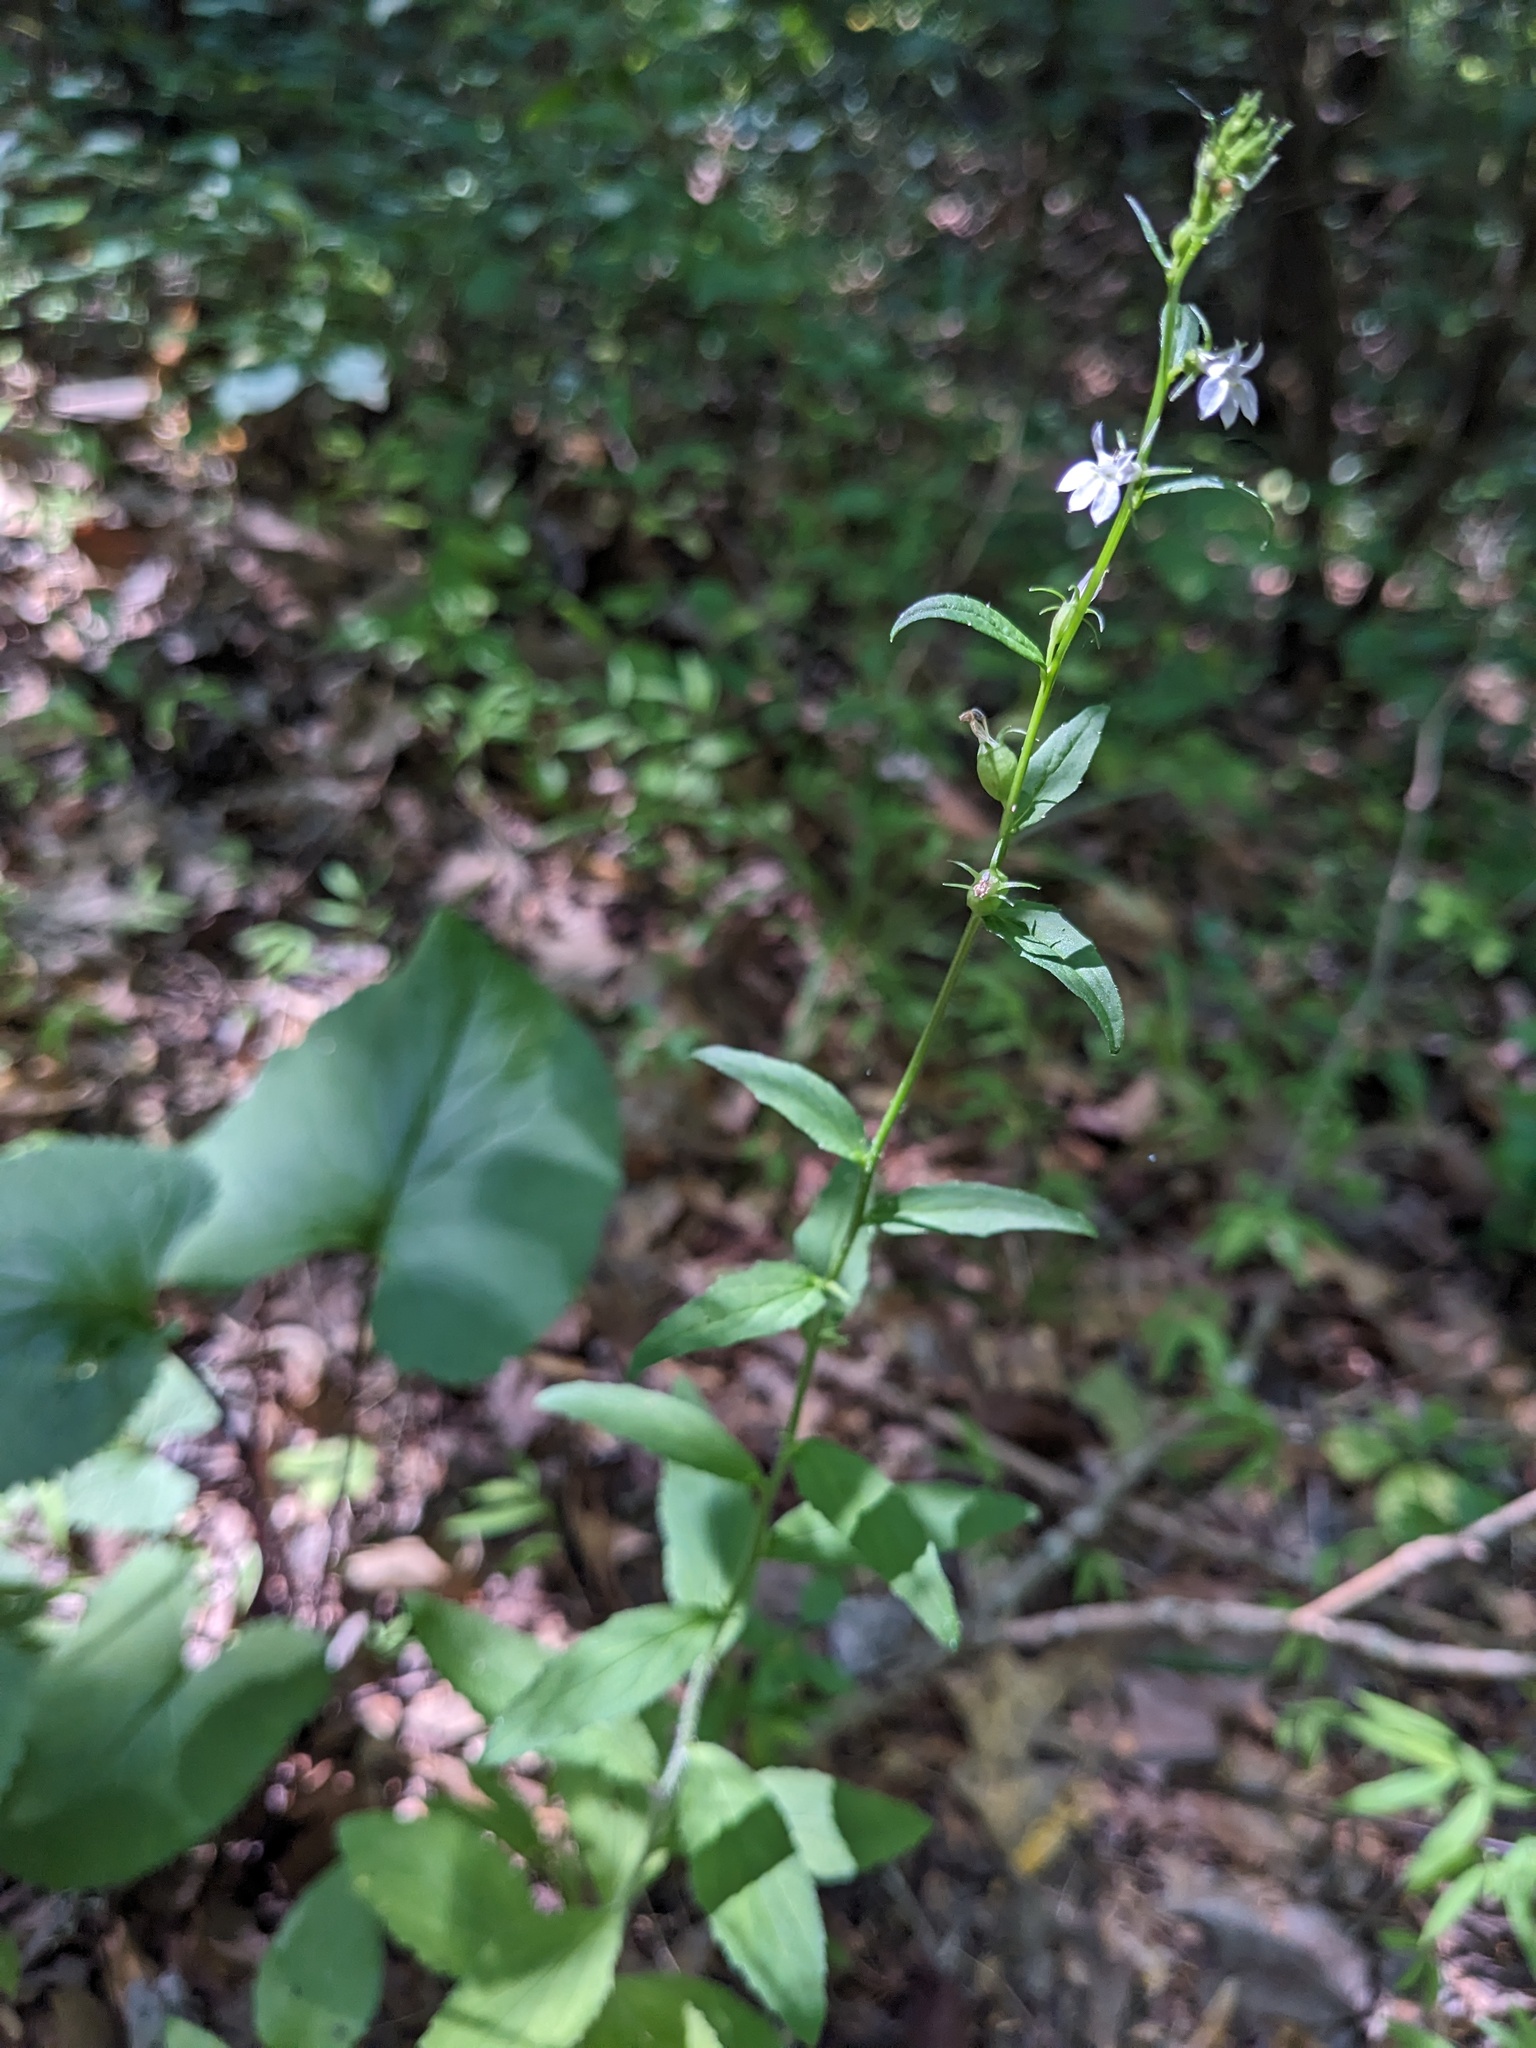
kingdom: Plantae
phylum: Tracheophyta
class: Magnoliopsida
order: Asterales
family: Campanulaceae
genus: Lobelia
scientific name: Lobelia inflata
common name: Indian tobacco
